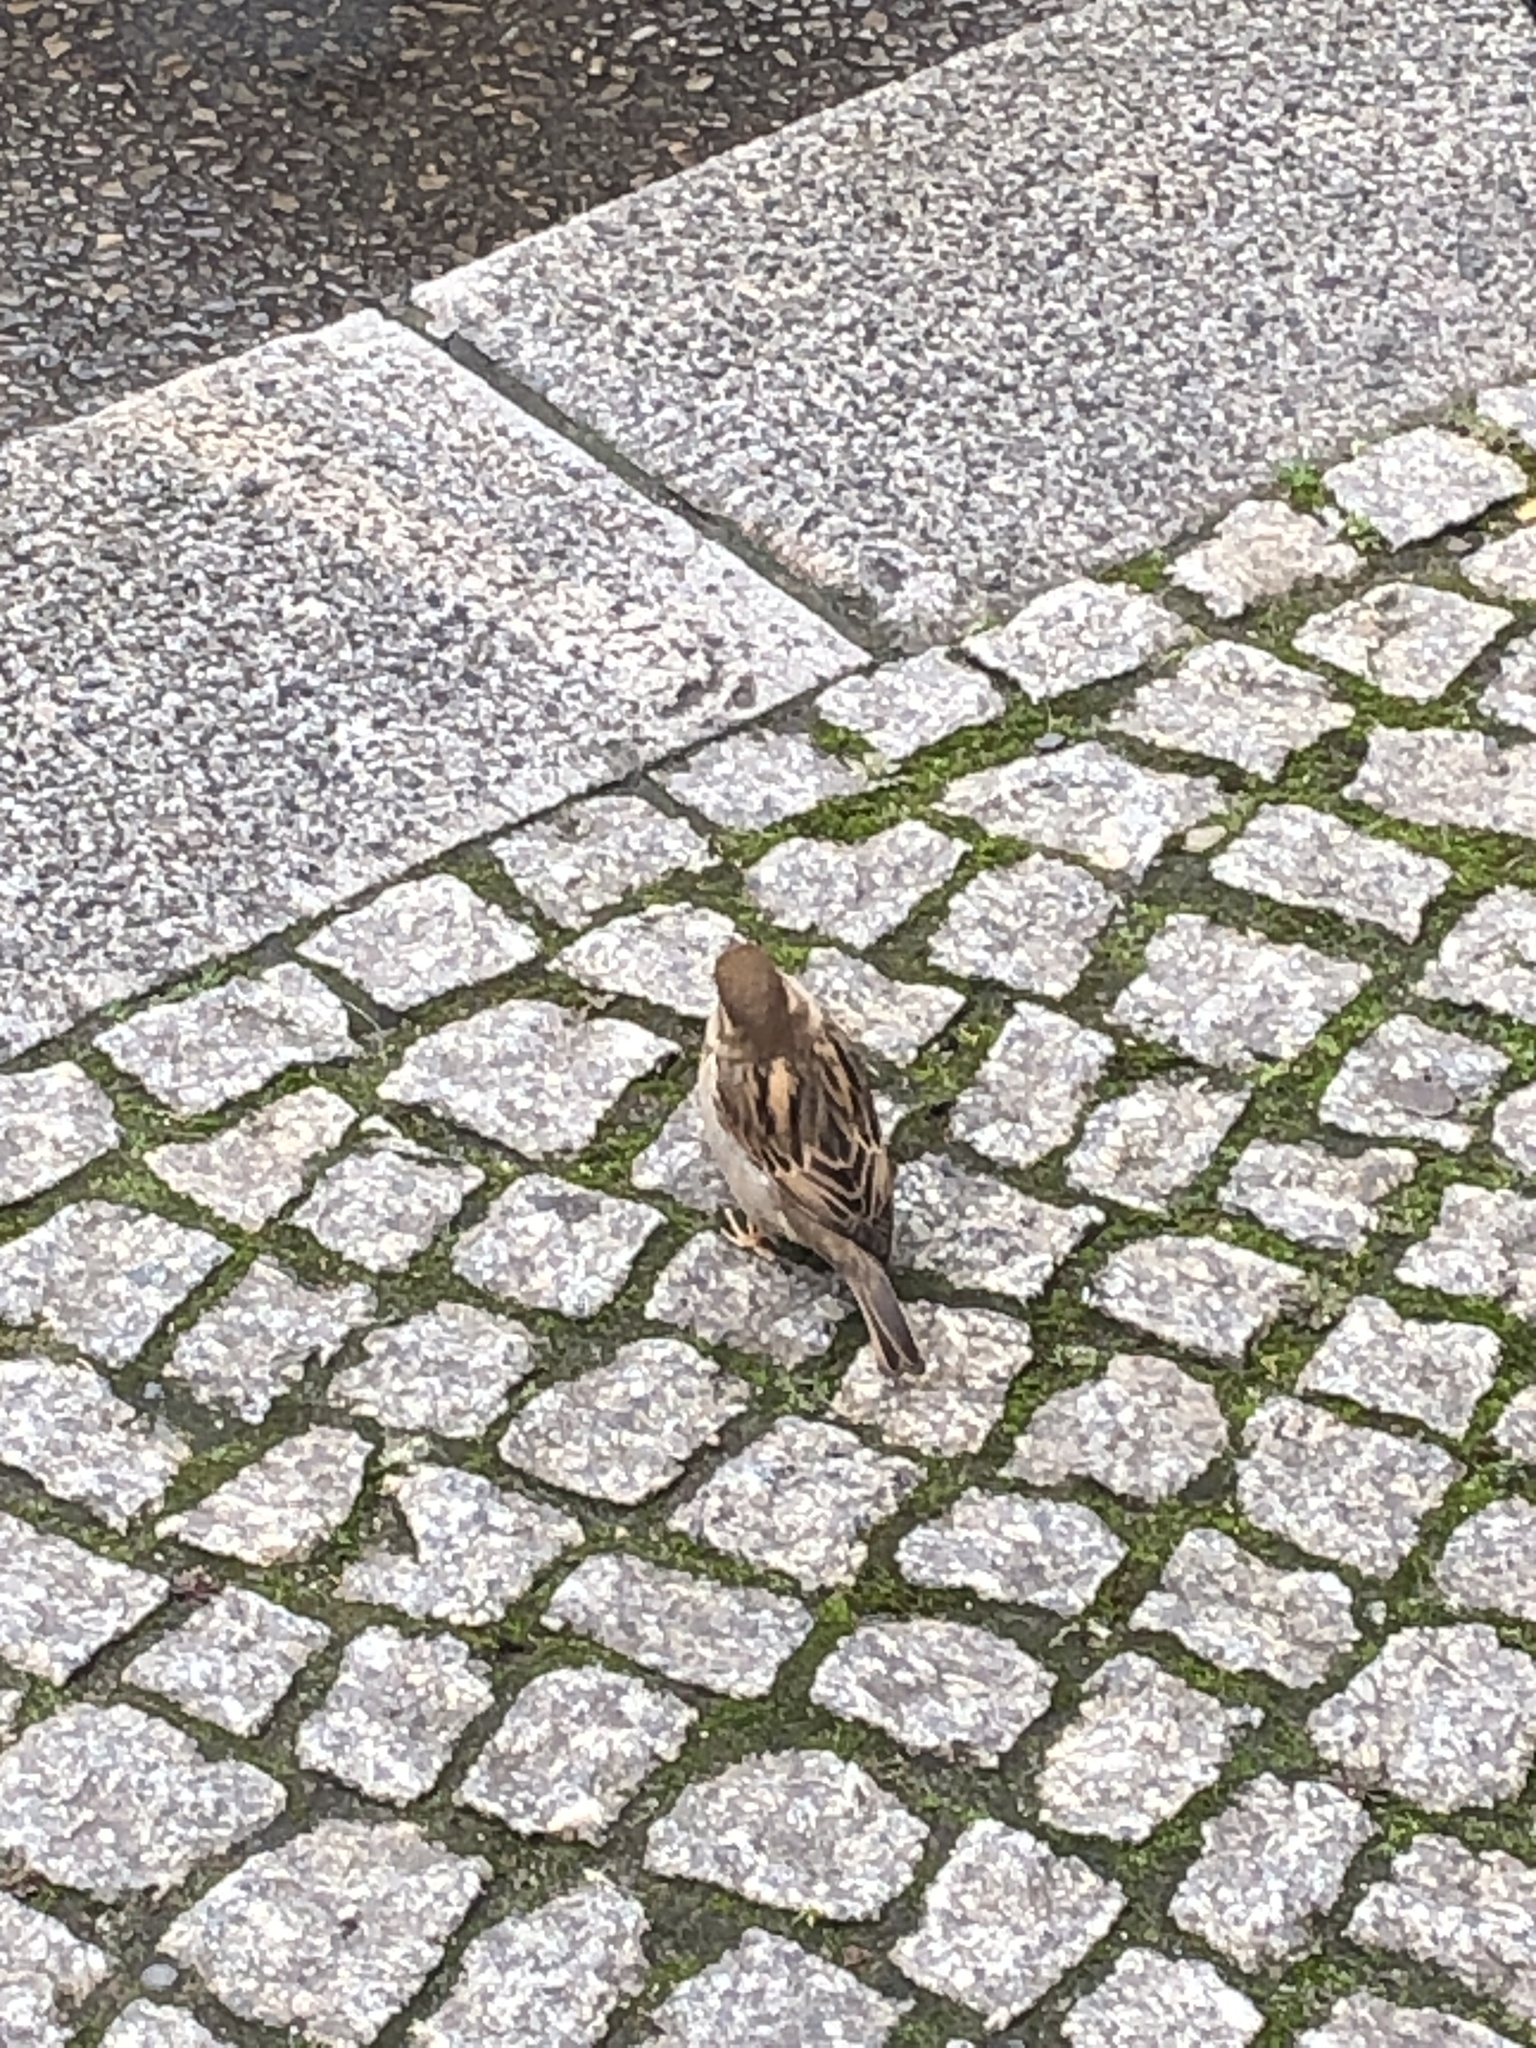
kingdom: Animalia
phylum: Chordata
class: Aves
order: Passeriformes
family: Passeridae
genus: Passer
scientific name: Passer domesticus
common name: House sparrow
